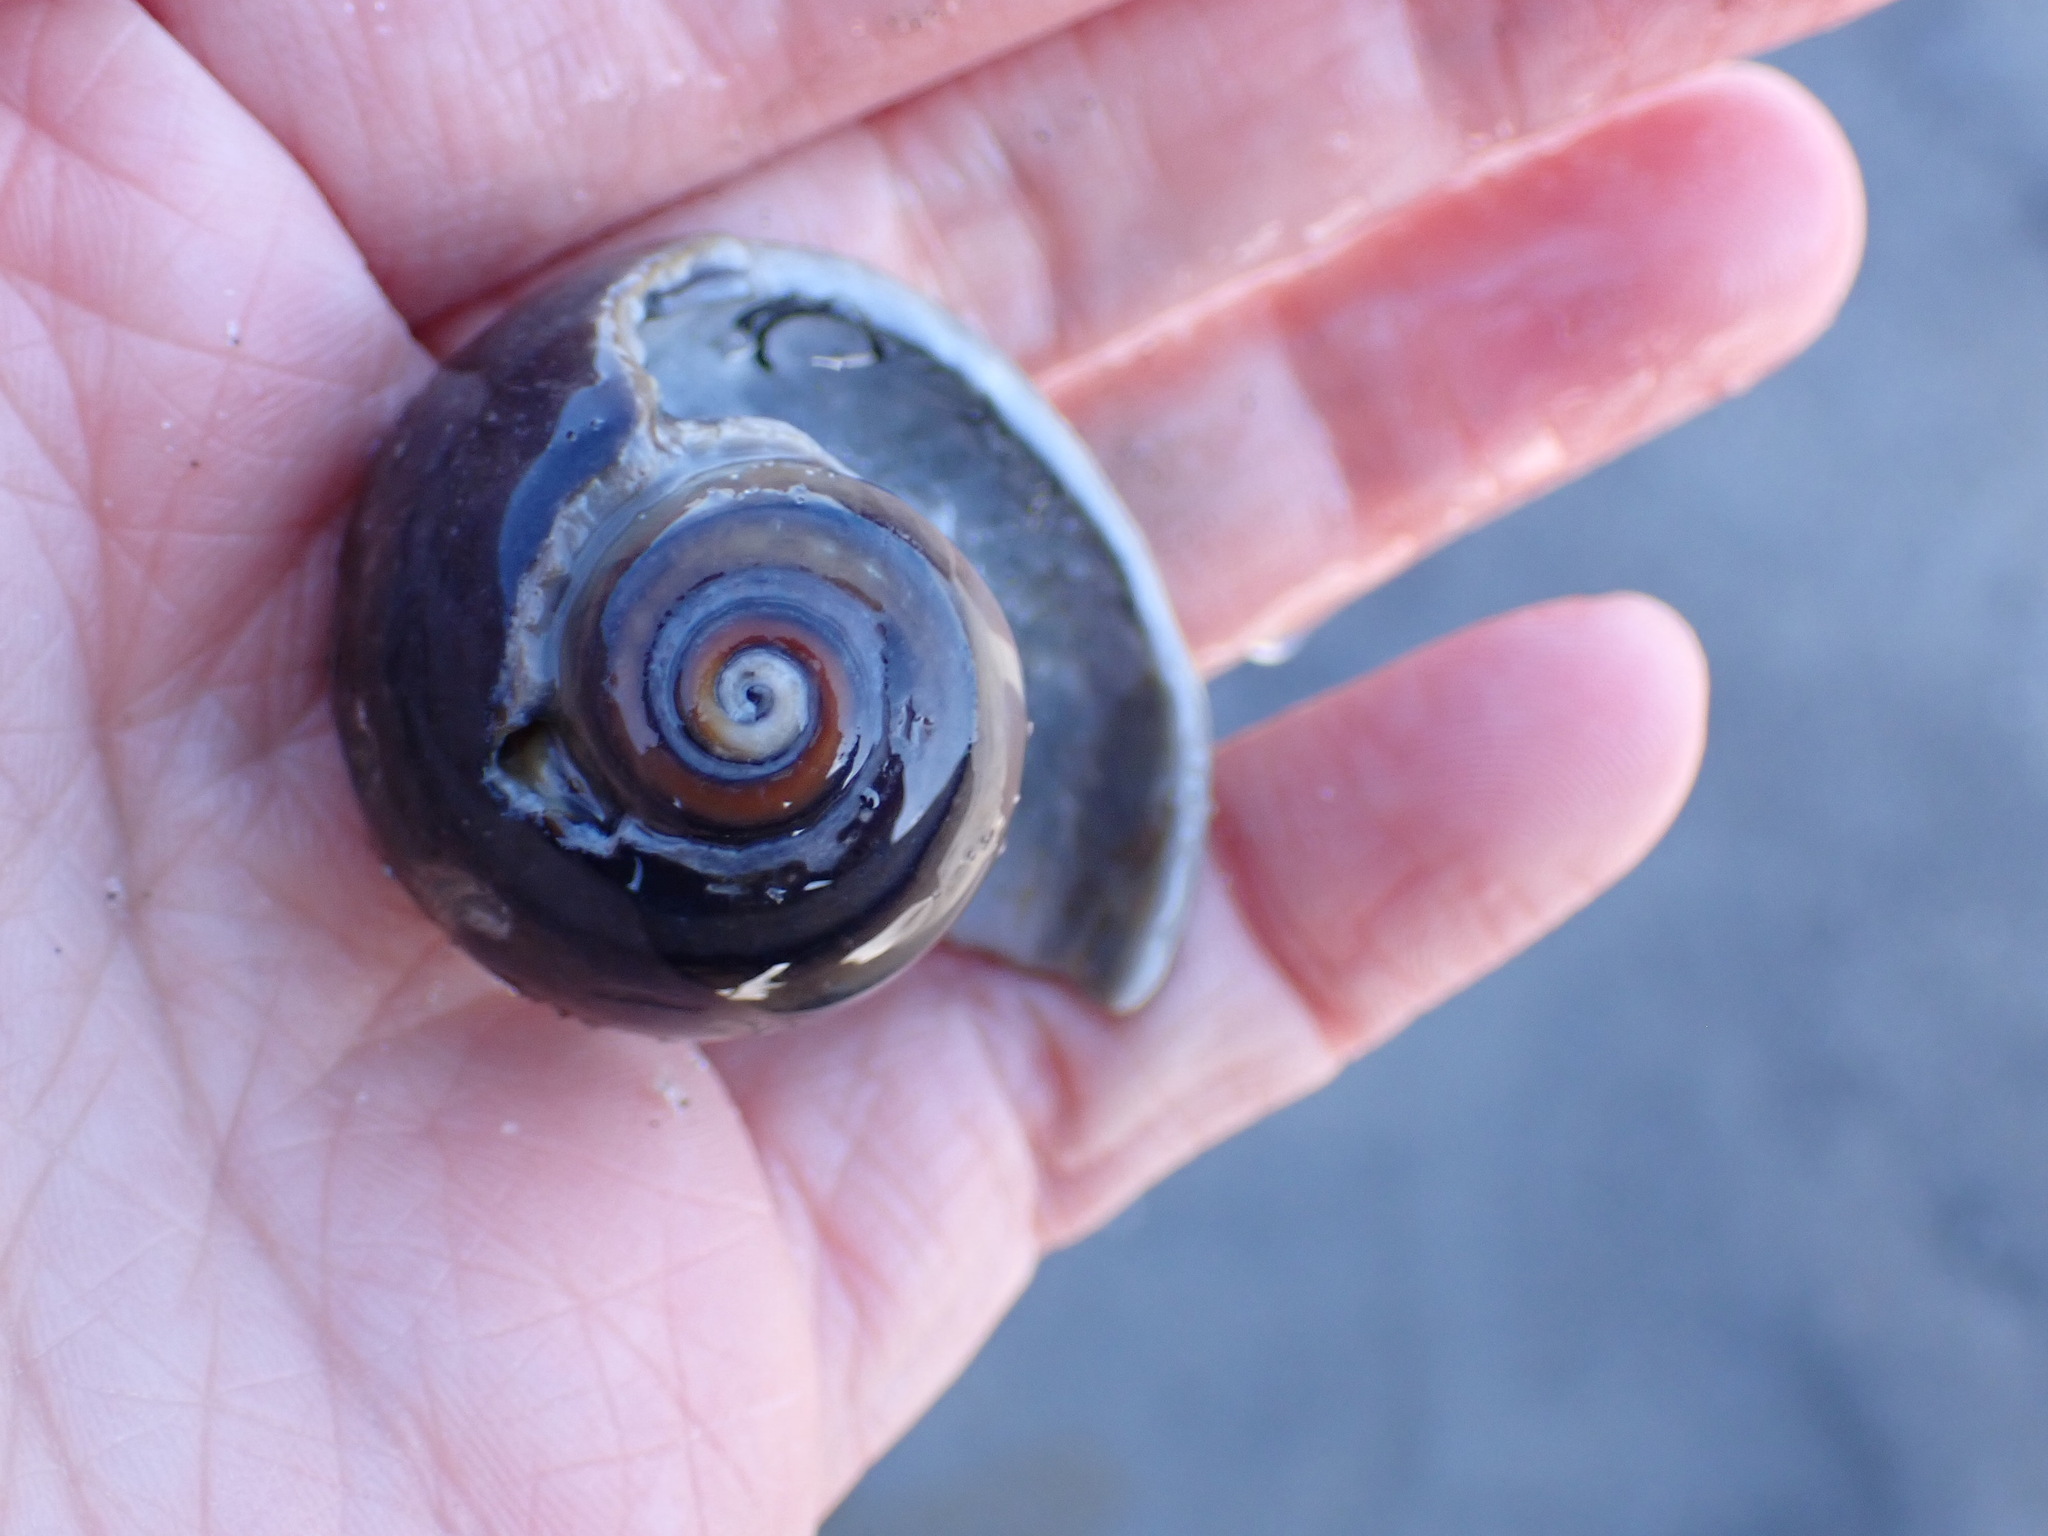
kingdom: Animalia
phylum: Mollusca
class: Gastropoda
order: Littorinimorpha
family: Naticidae
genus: Neverita
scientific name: Neverita duplicata
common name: Lobed moonsnail
